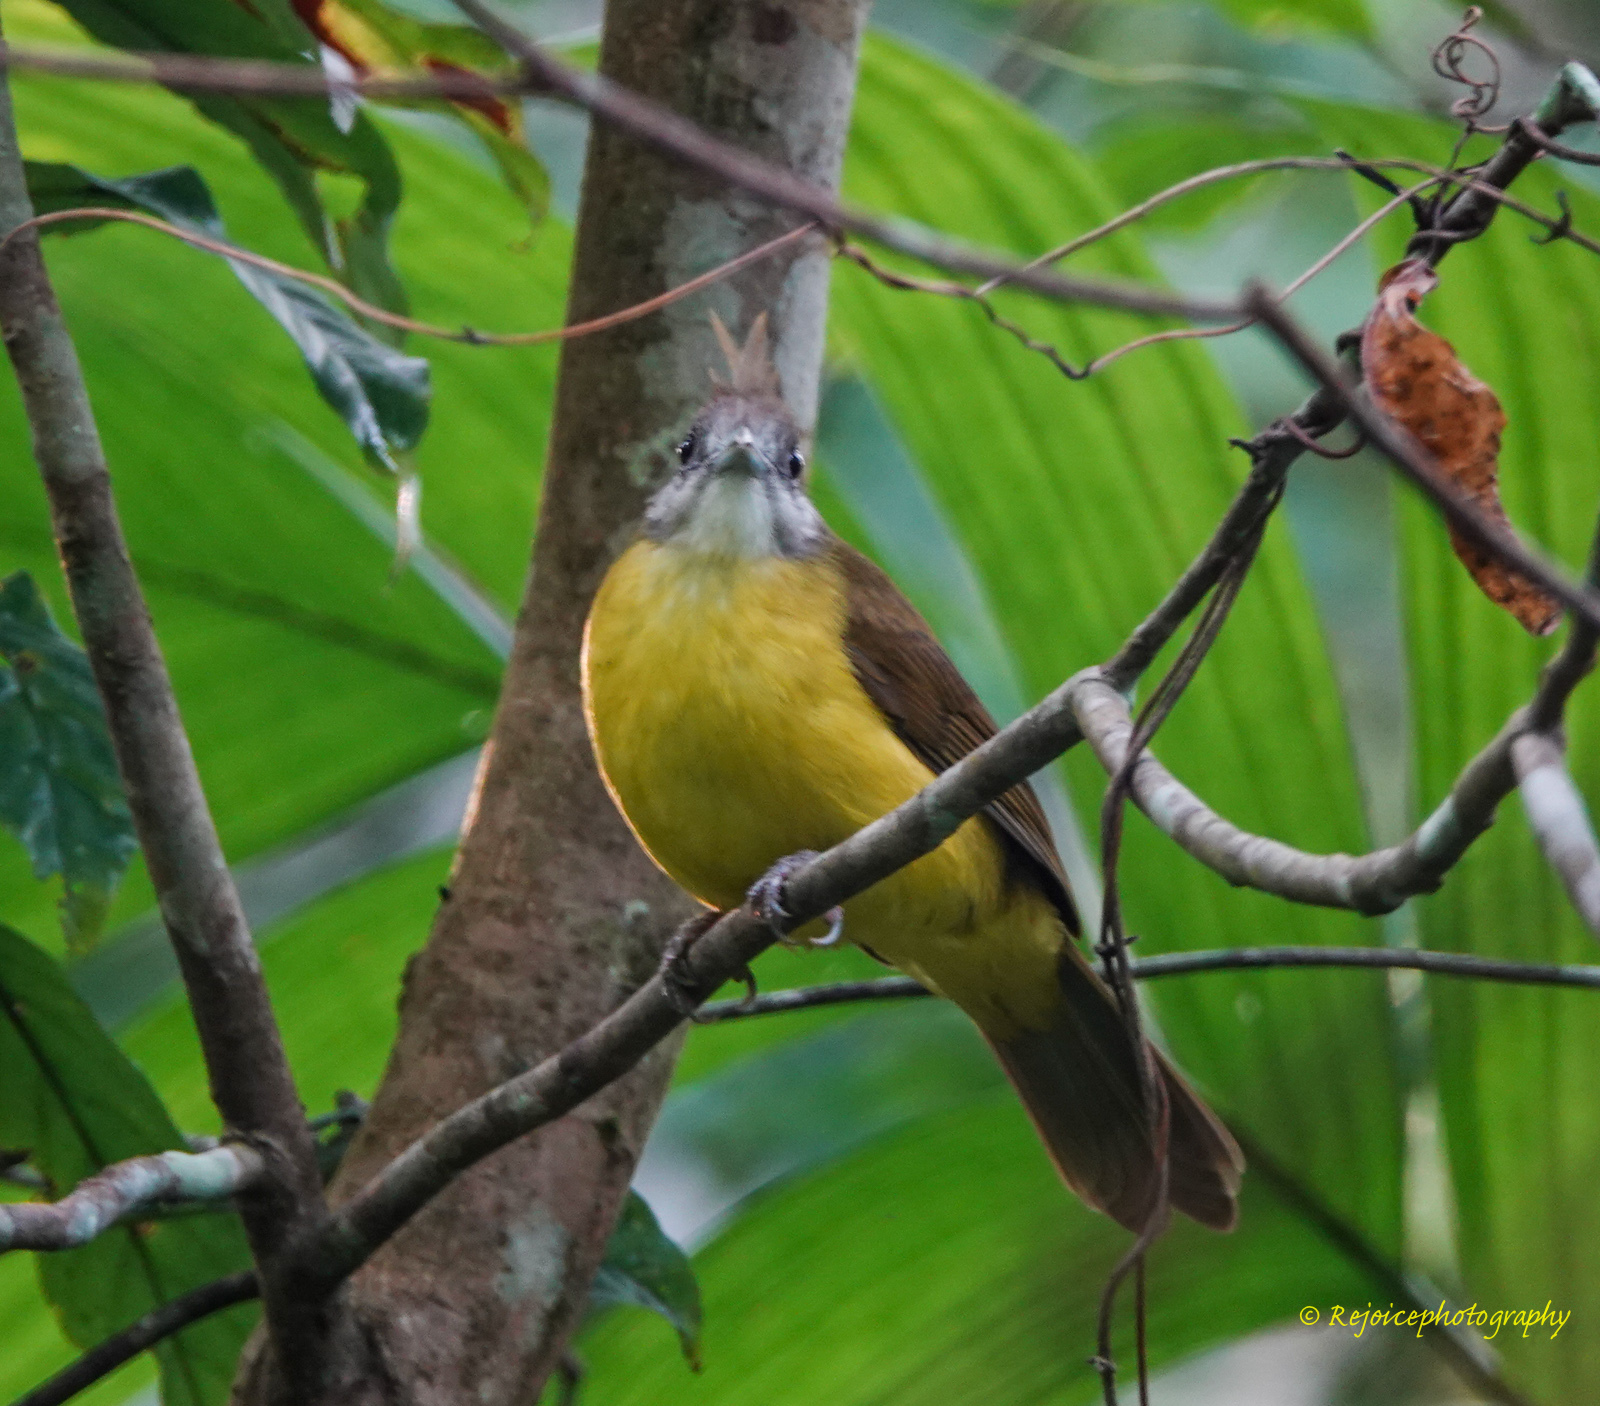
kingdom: Animalia
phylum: Chordata
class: Aves
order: Passeriformes
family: Pycnonotidae
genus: Alophoixus
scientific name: Alophoixus flaveolus
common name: White-throated bulbul
